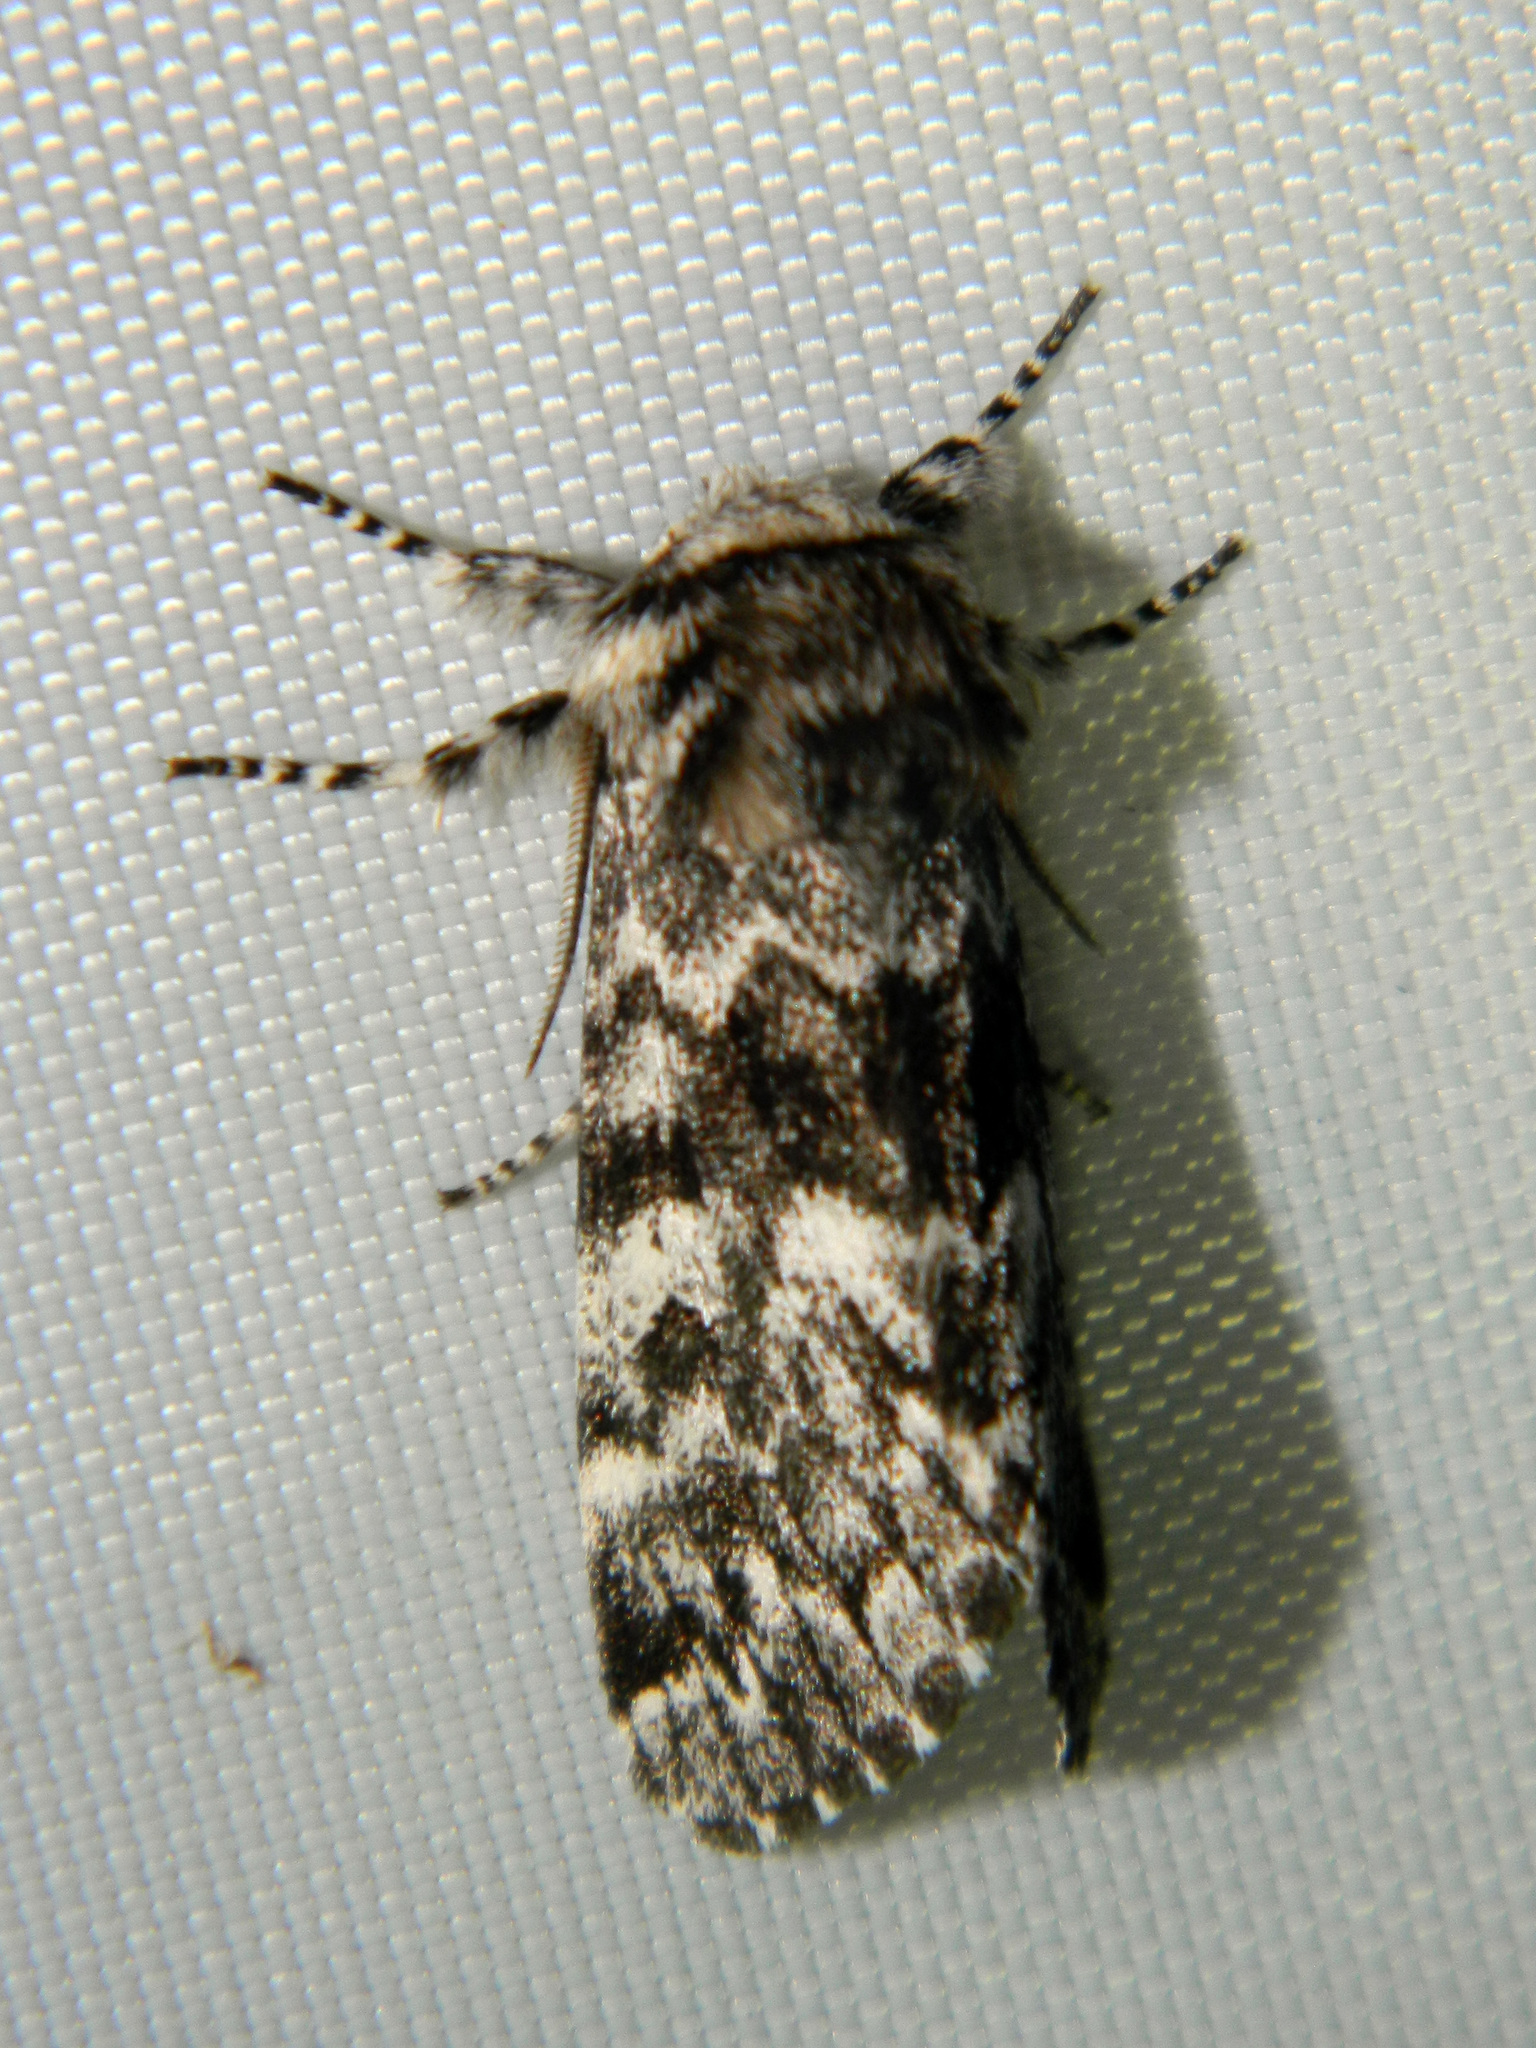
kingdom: Animalia
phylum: Arthropoda
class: Insecta
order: Lepidoptera
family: Noctuidae
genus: Panthea
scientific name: Panthea acronyctoides
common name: Black zigzag moth
